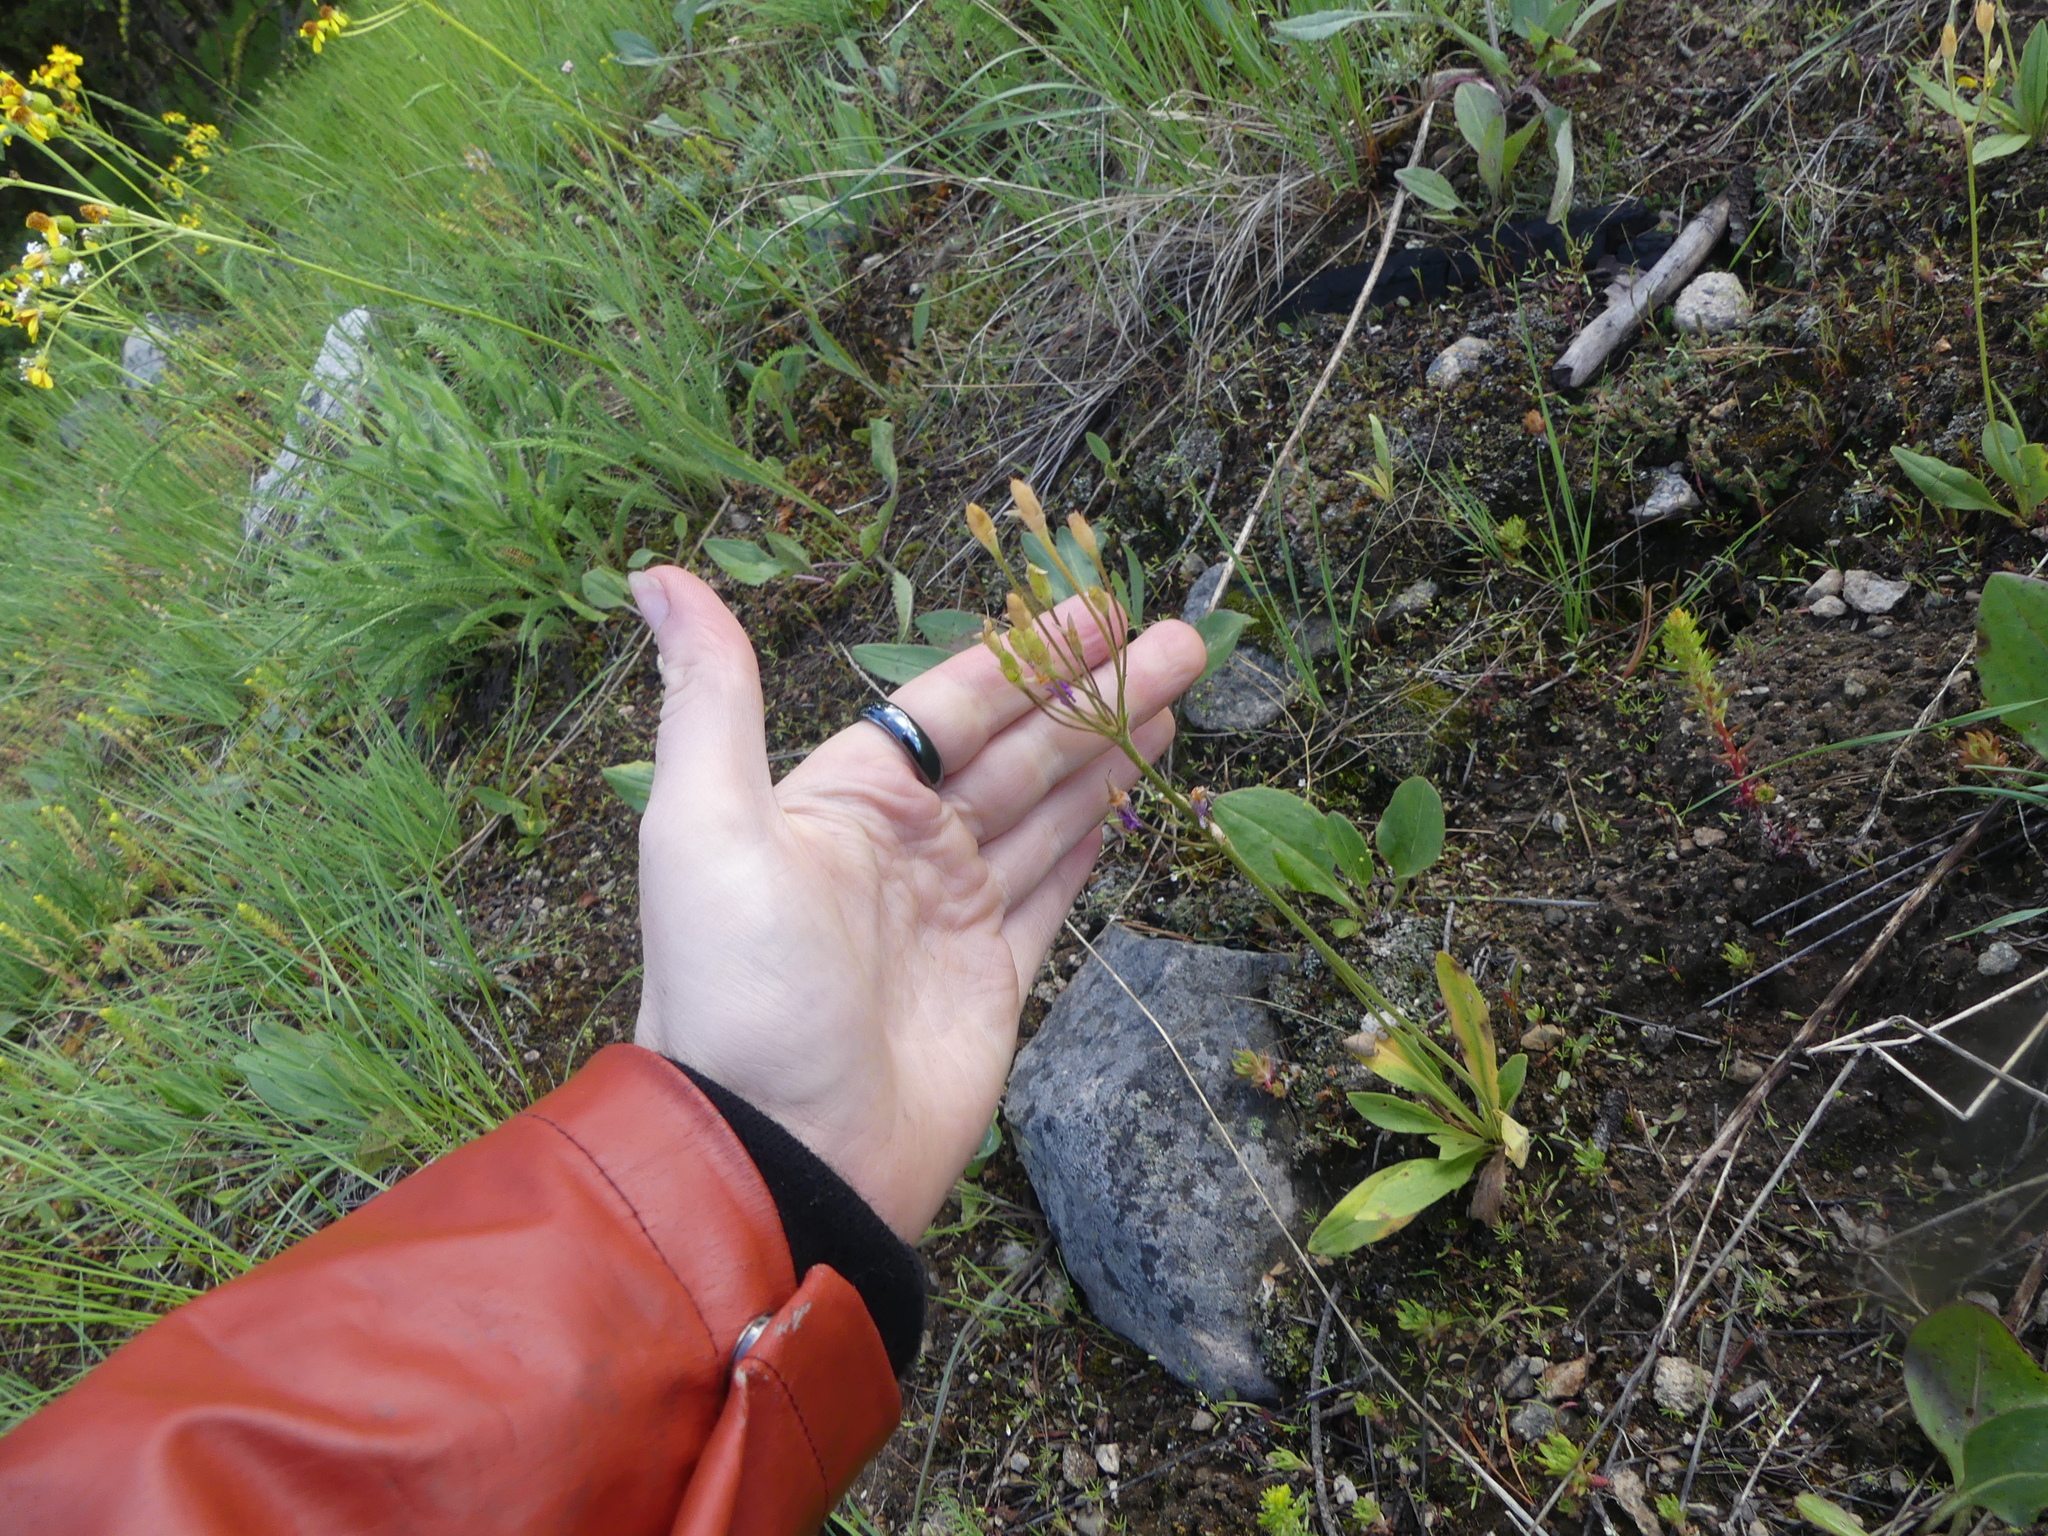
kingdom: Plantae
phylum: Tracheophyta
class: Magnoliopsida
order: Ericales
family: Primulaceae
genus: Dodecatheon
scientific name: Dodecatheon pulchellum
